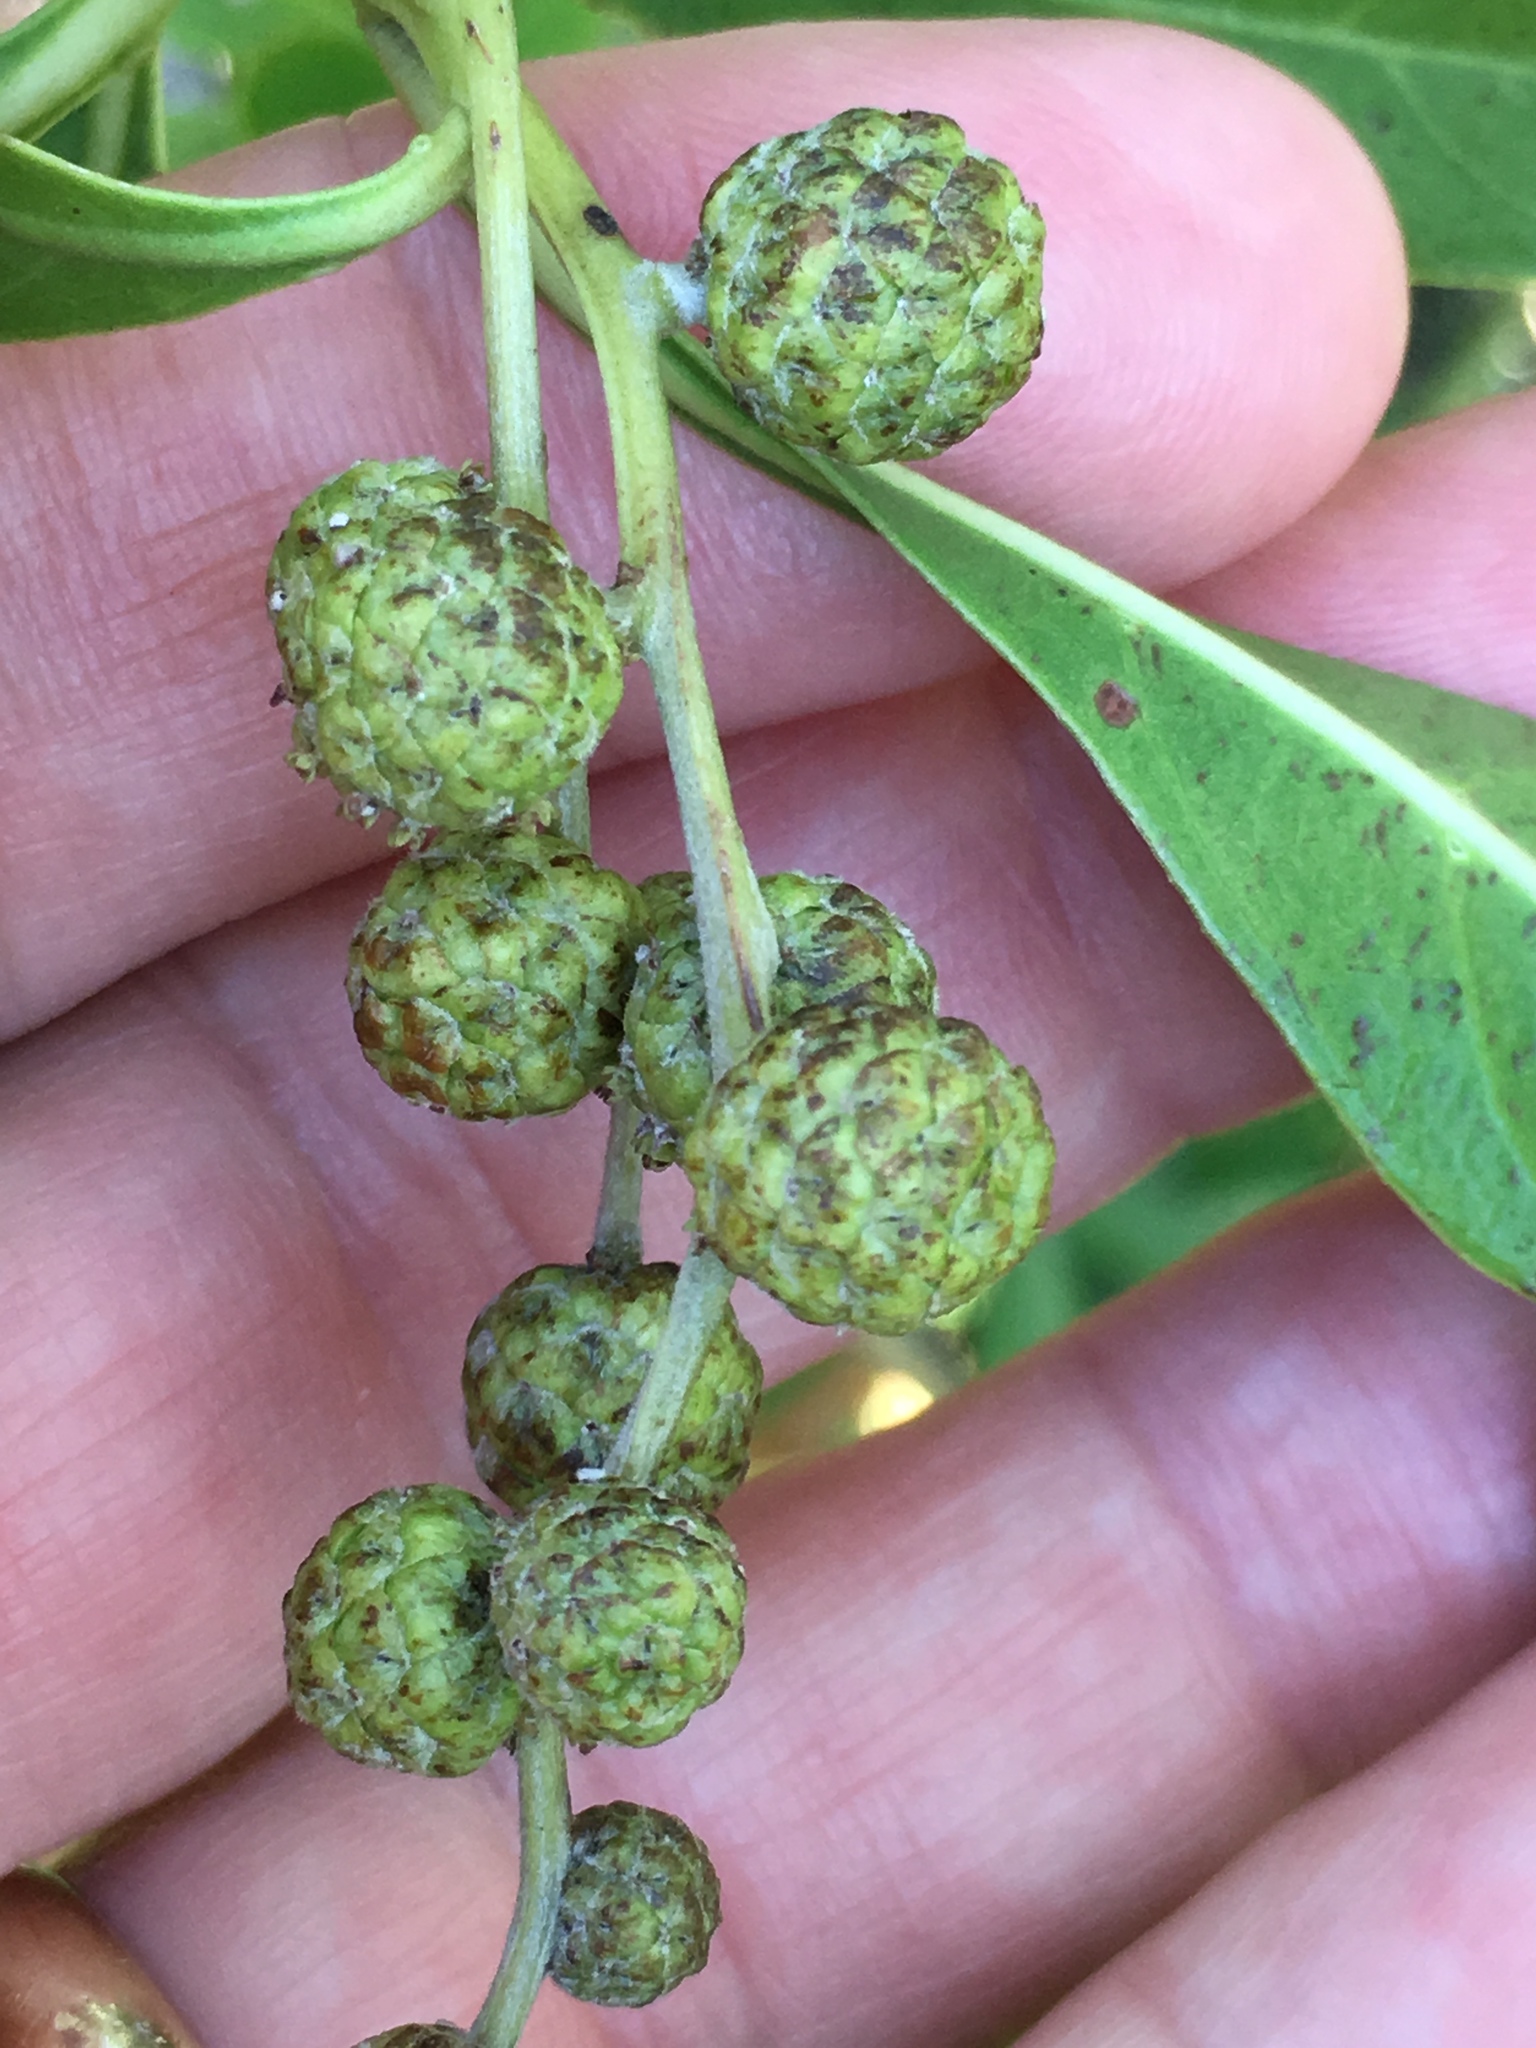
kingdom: Plantae
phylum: Tracheophyta
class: Magnoliopsida
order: Myrtales
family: Combretaceae
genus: Conocarpus
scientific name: Conocarpus erectus
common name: Button mangrove
